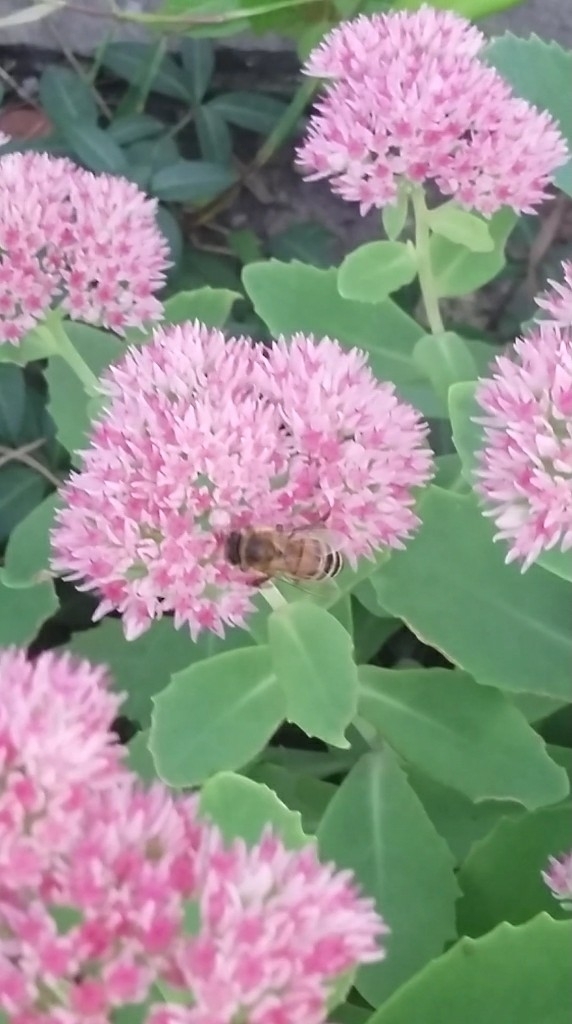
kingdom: Animalia
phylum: Arthropoda
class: Insecta
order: Hymenoptera
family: Apidae
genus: Apis
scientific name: Apis mellifera
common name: Honey bee
